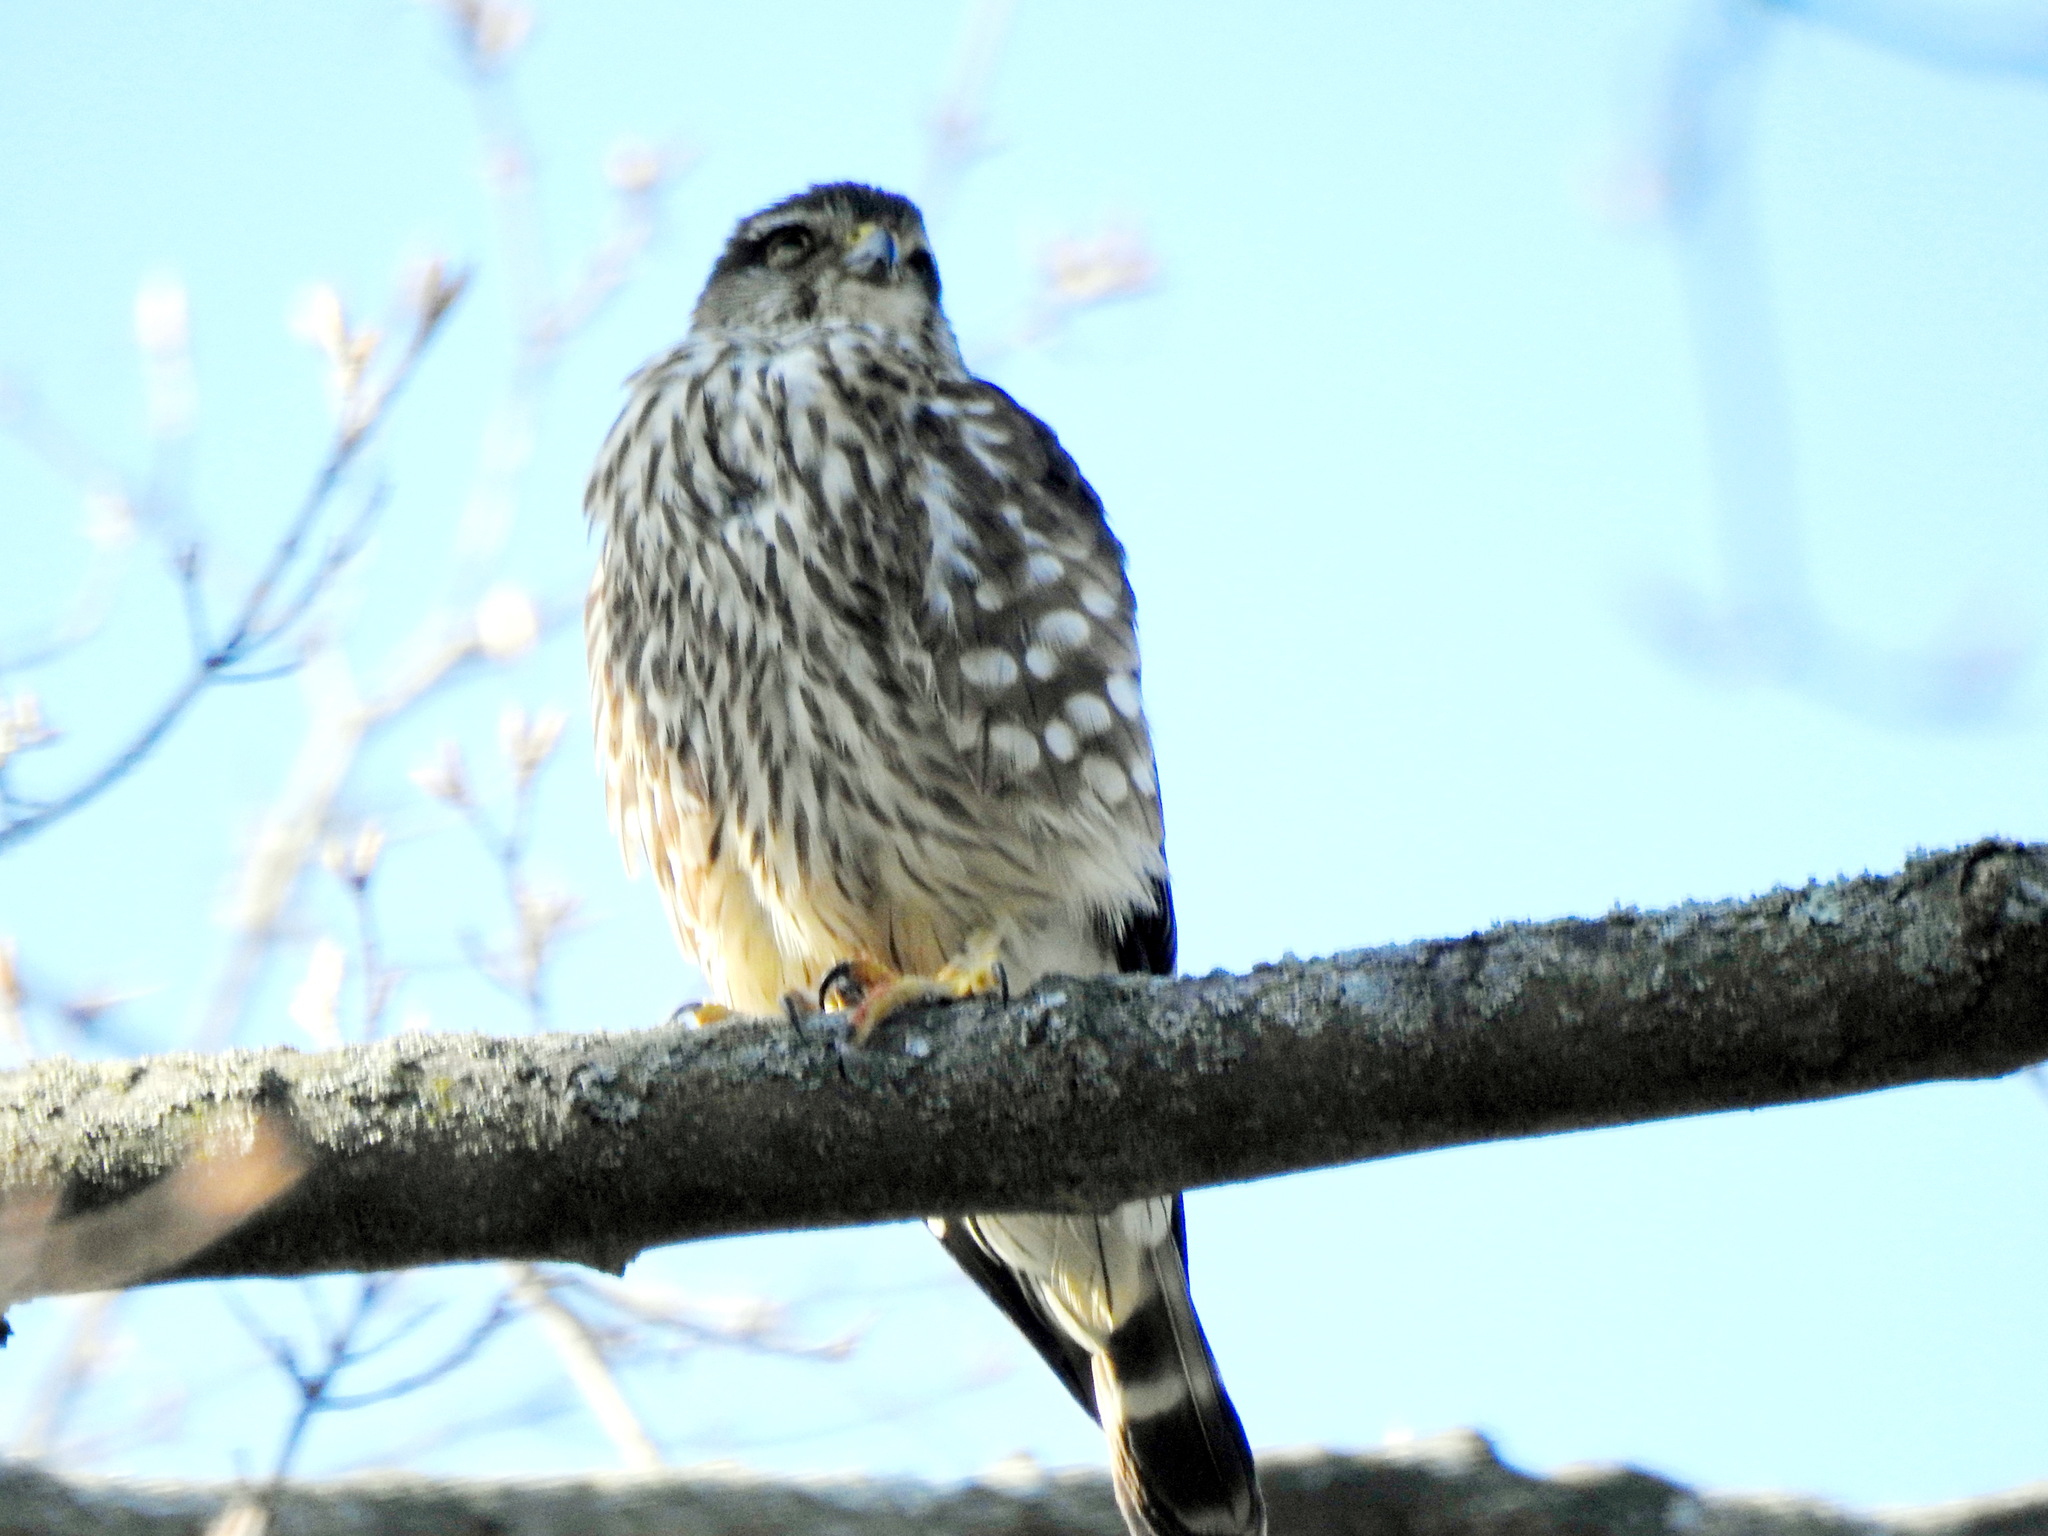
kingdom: Animalia
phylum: Chordata
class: Aves
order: Falconiformes
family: Falconidae
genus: Falco
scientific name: Falco columbarius
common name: Merlin
